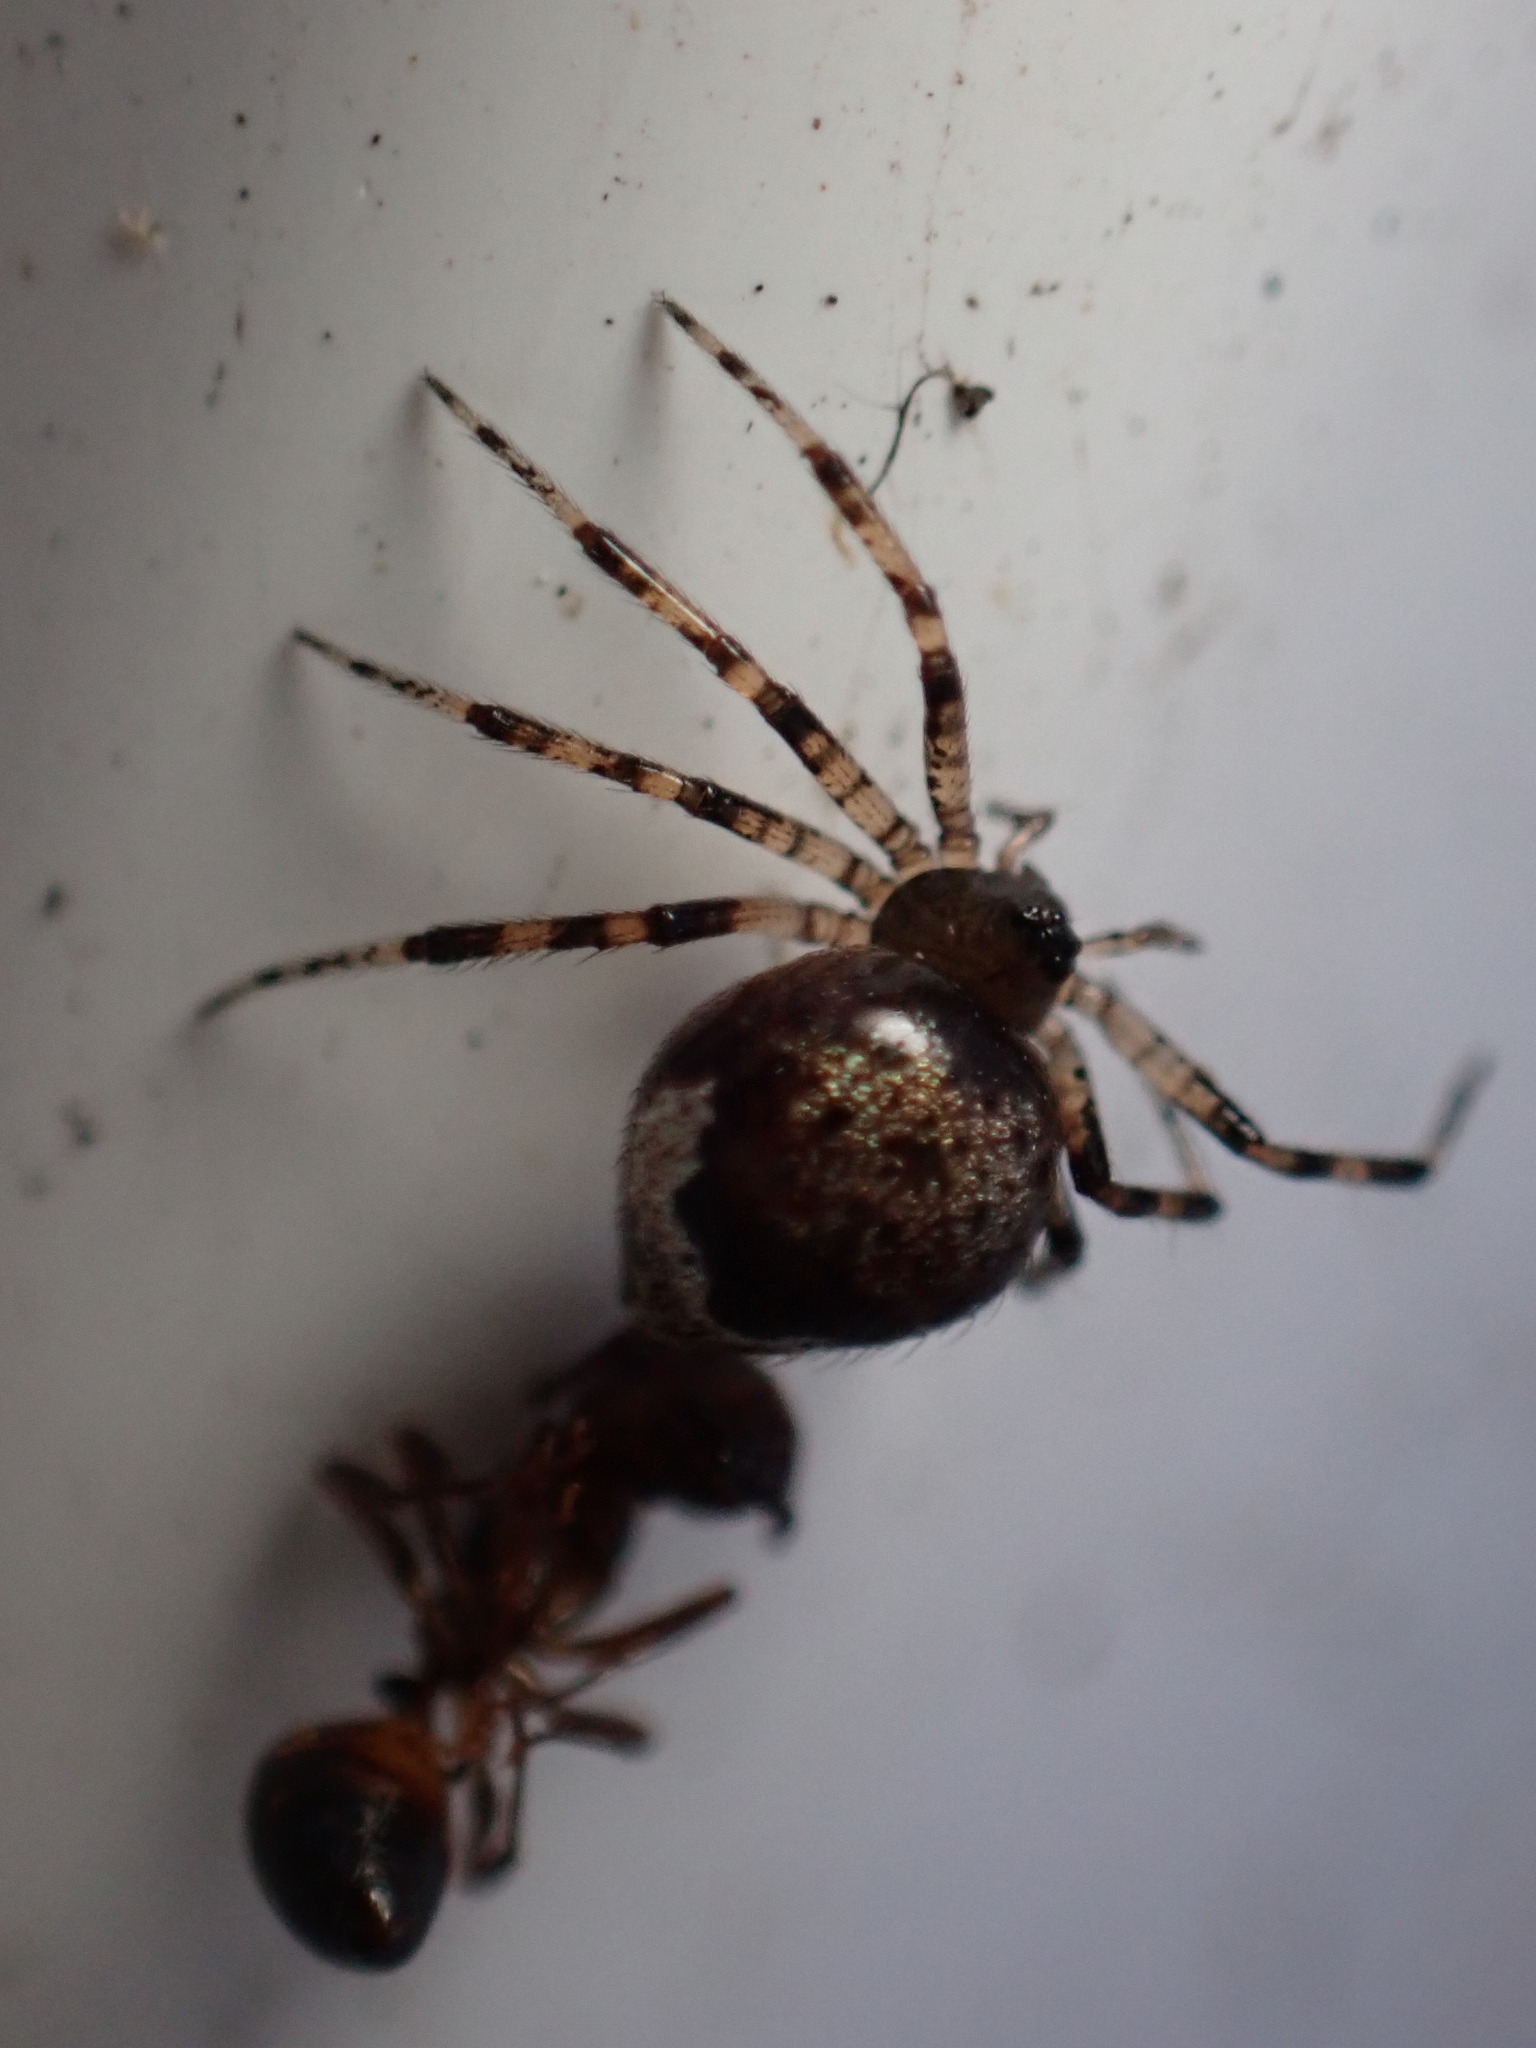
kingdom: Animalia
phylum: Arthropoda
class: Arachnida
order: Araneae
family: Theridiidae
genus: Euryopis
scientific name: Euryopis funebris
